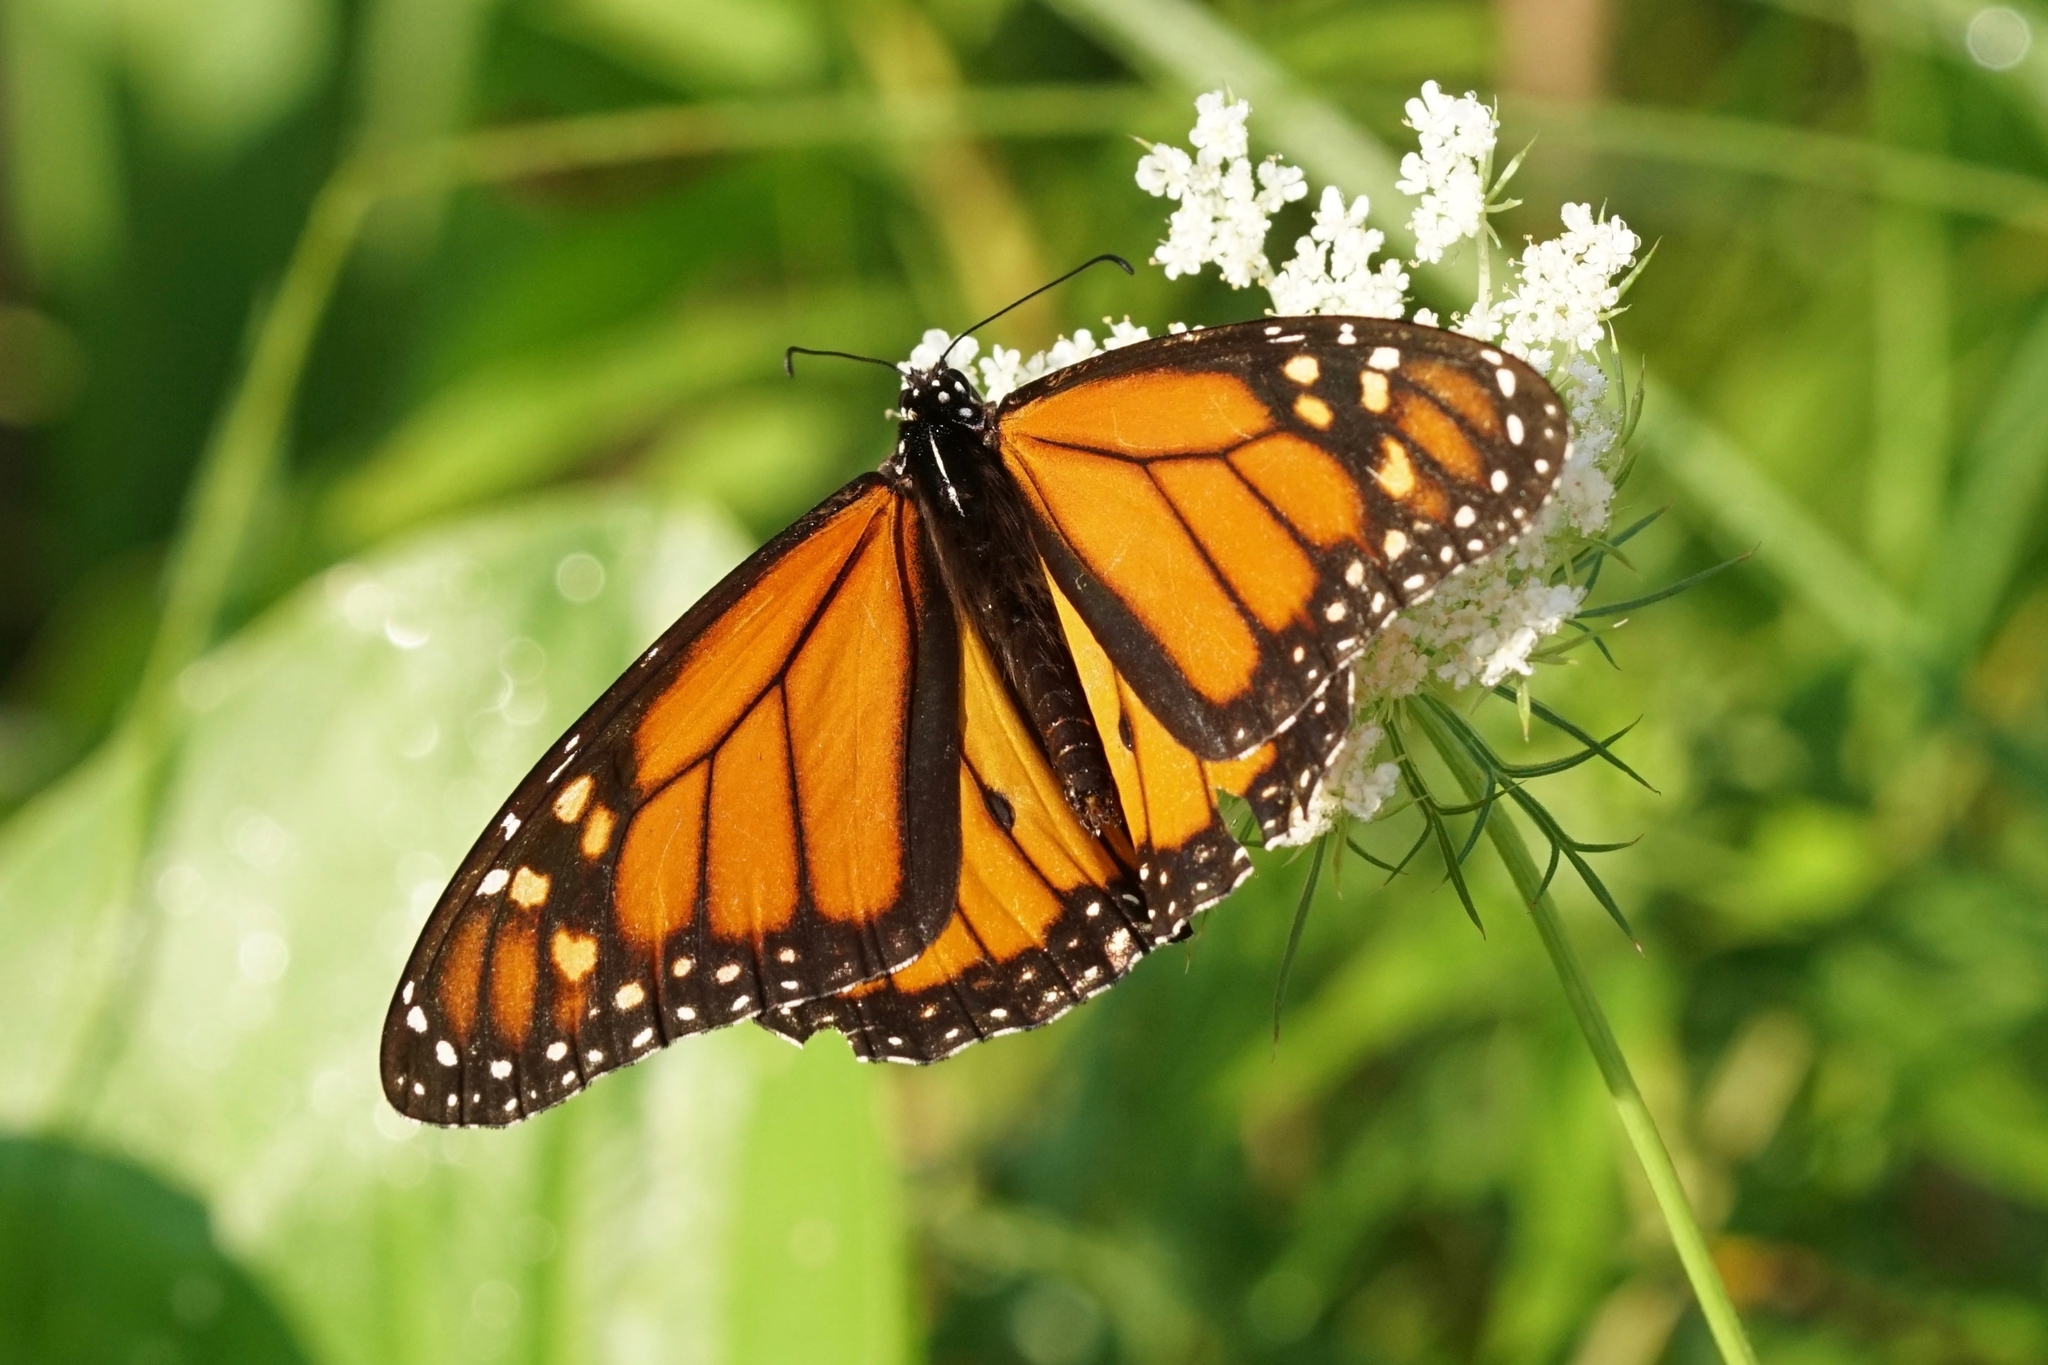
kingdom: Animalia
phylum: Arthropoda
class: Insecta
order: Lepidoptera
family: Nymphalidae
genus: Danaus
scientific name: Danaus plexippus
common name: Monarch
